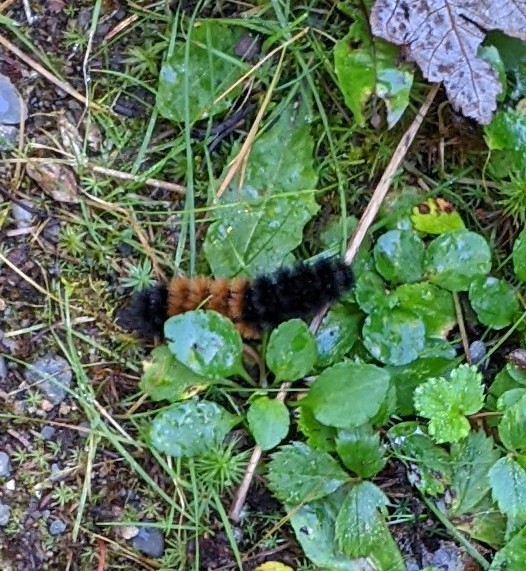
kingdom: Animalia
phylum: Arthropoda
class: Insecta
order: Lepidoptera
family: Erebidae
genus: Pyrrharctia
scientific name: Pyrrharctia isabella
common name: Isabella tiger moth
